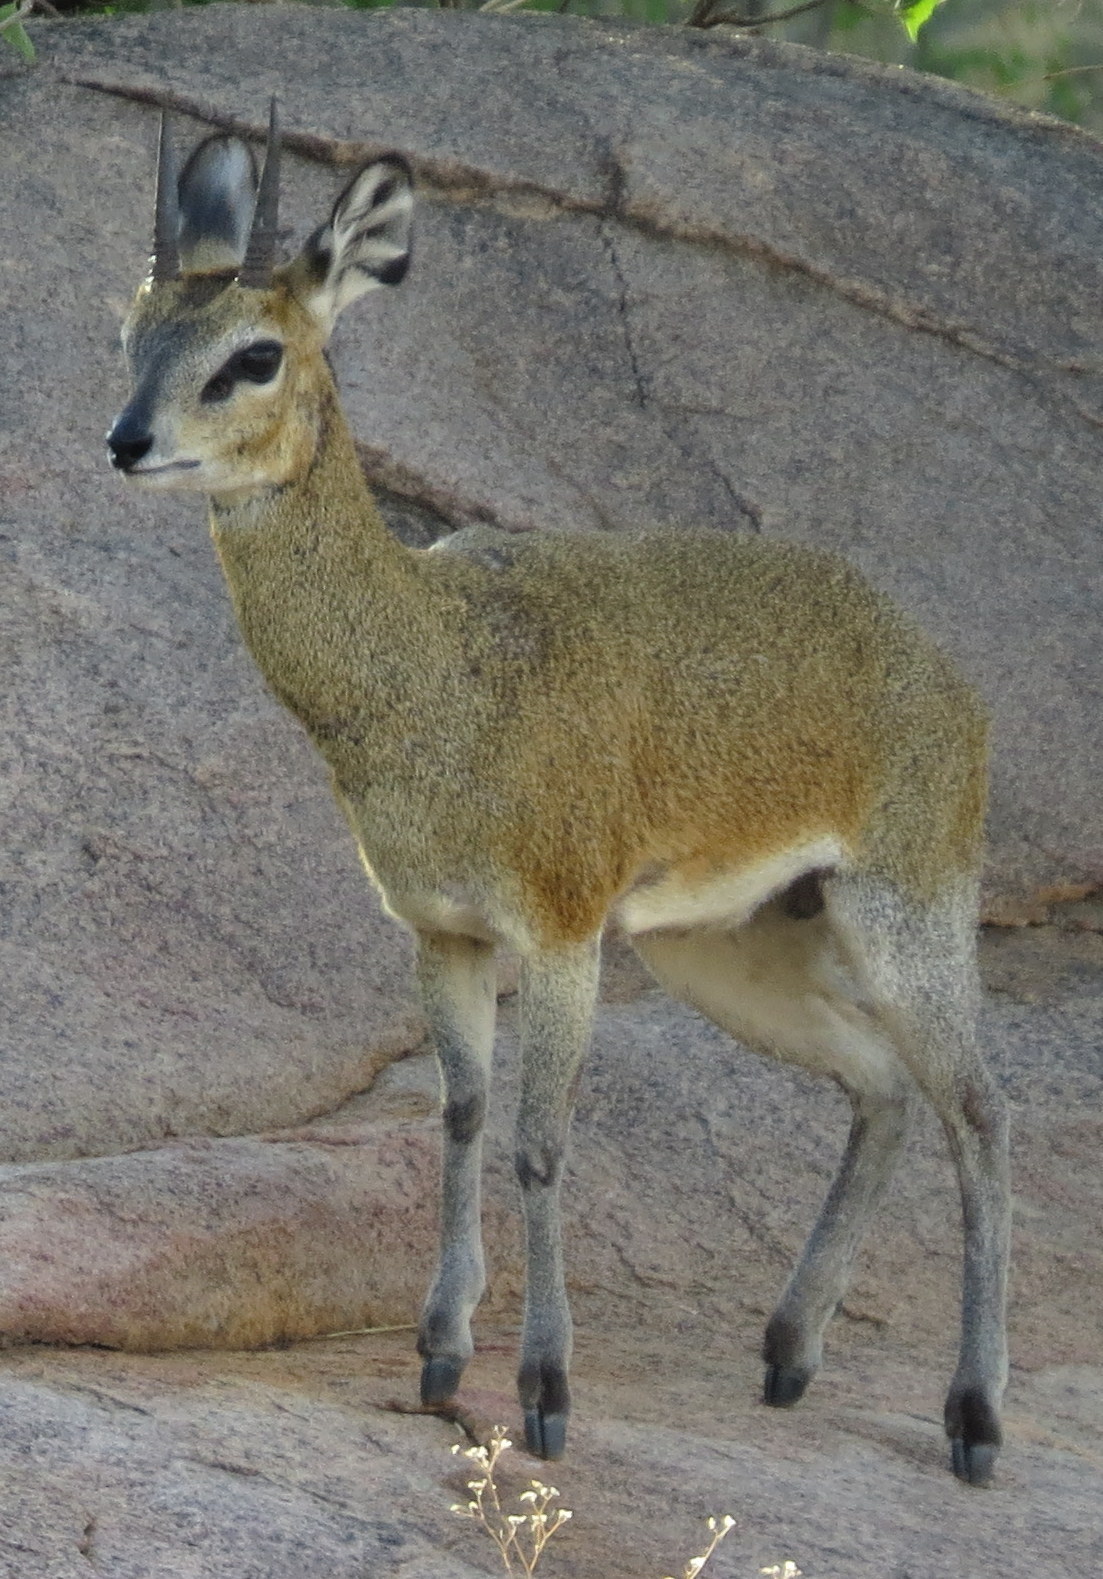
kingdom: Animalia
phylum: Chordata
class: Mammalia
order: Artiodactyla
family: Bovidae
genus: Oreotragus
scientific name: Oreotragus oreotragus
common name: Klipspringer
